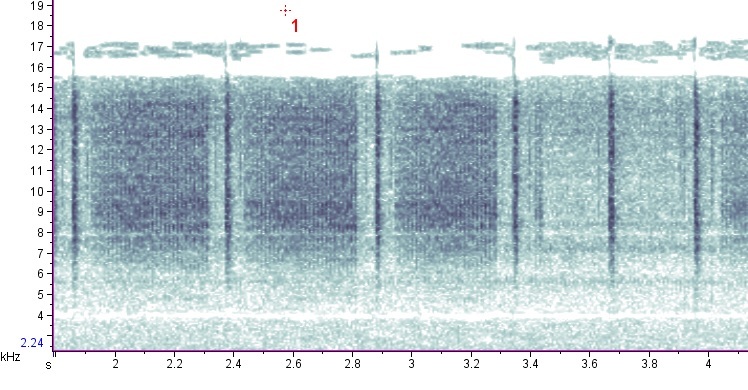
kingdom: Animalia
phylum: Arthropoda
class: Insecta
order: Orthoptera
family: Tettigoniidae
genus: Orchelimum
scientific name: Orchelimum erythrocephalum
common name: Red-headed meadow katydid
